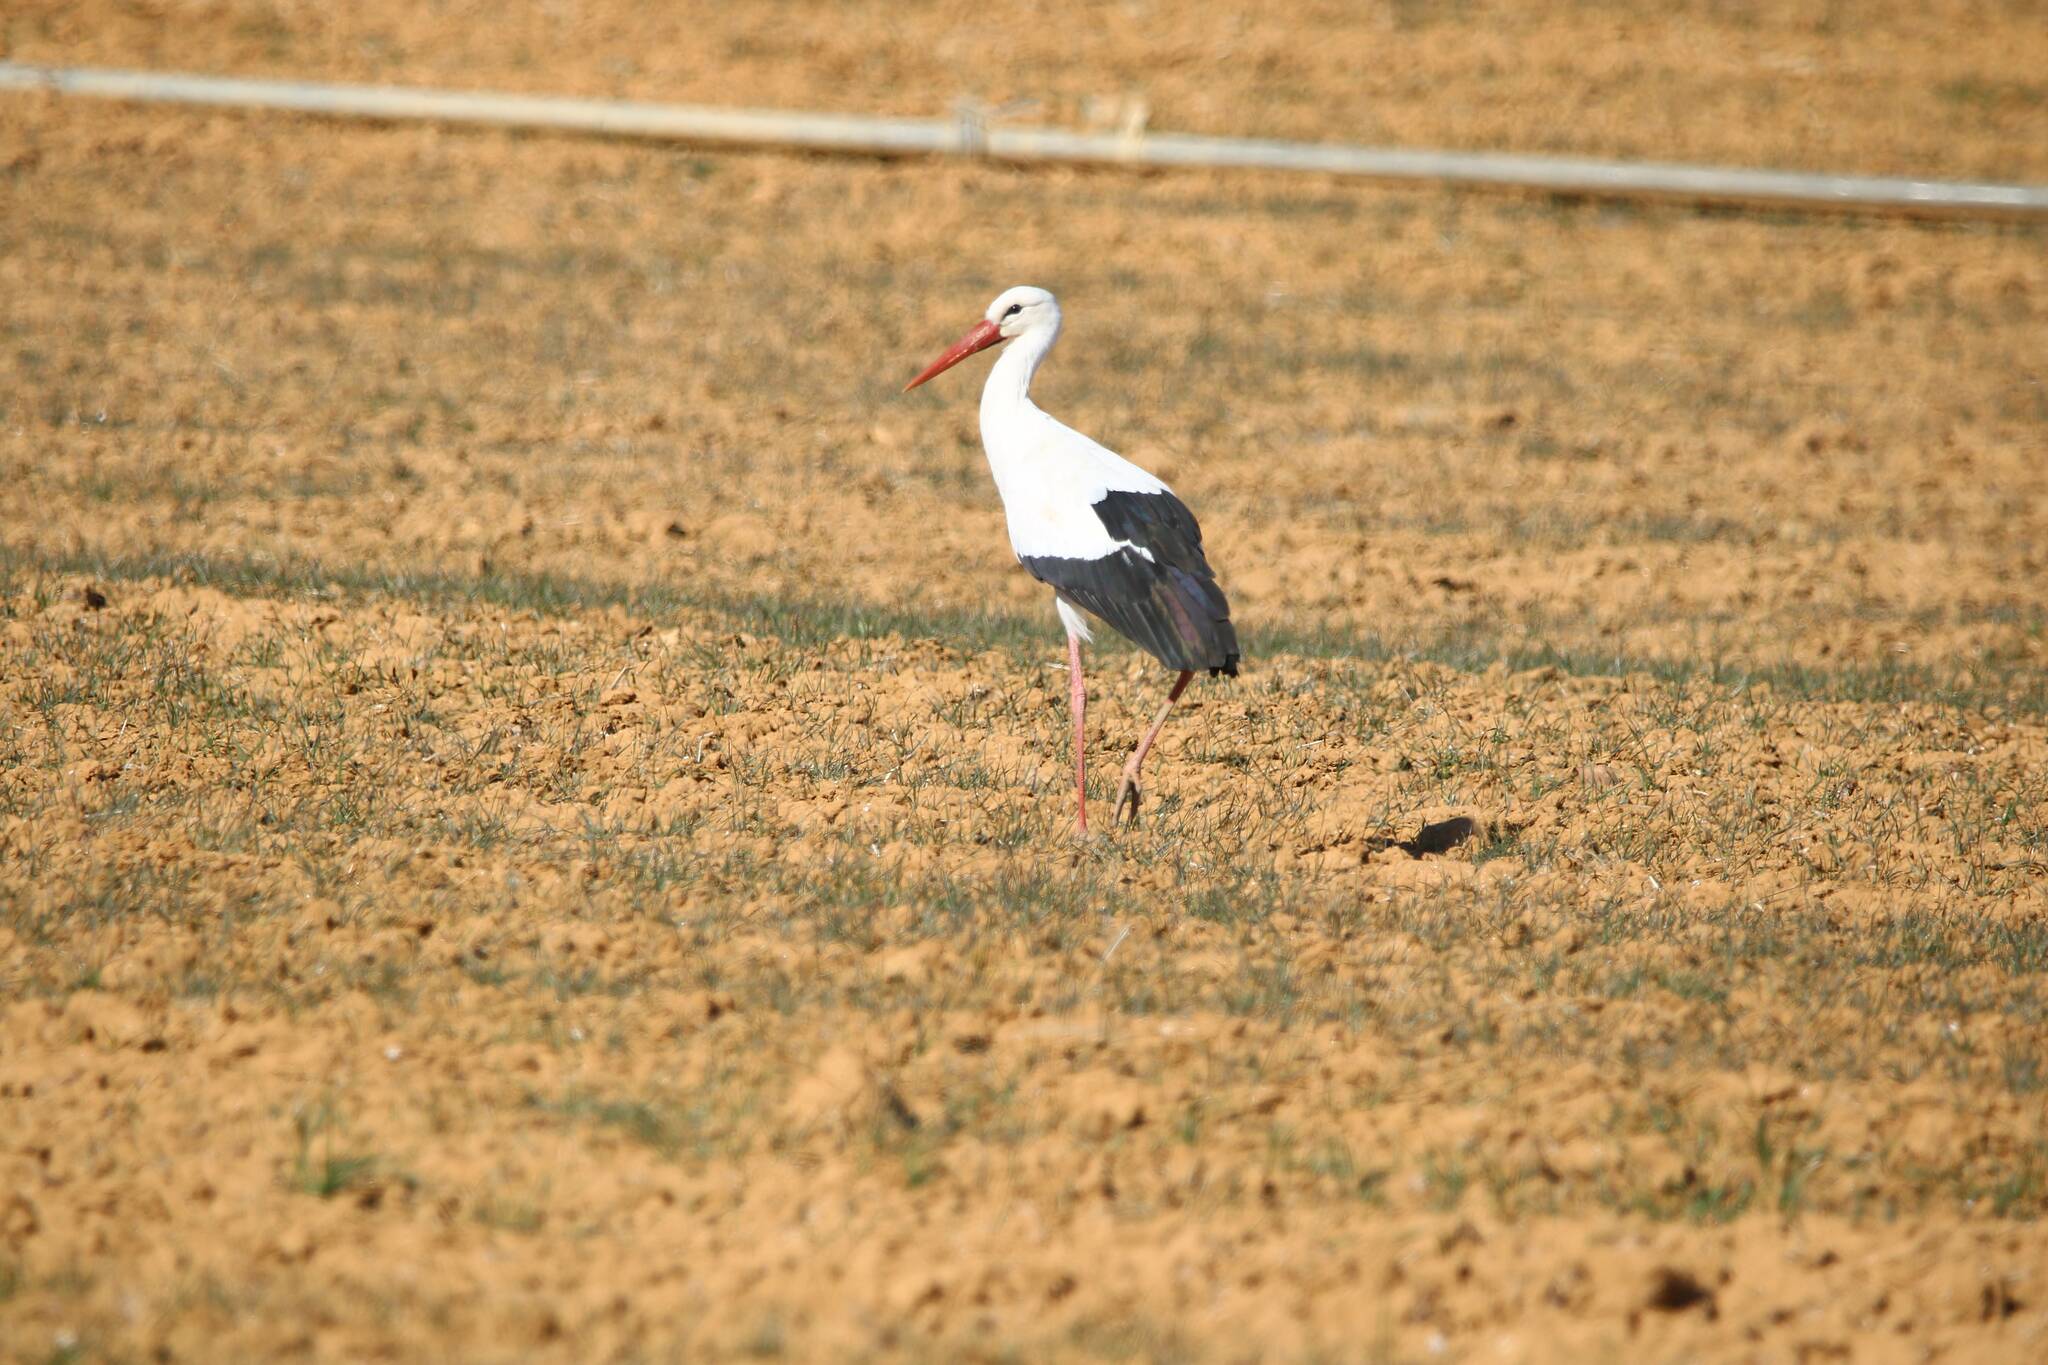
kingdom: Animalia
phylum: Chordata
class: Aves
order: Ciconiiformes
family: Ciconiidae
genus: Ciconia
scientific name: Ciconia ciconia
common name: White stork
